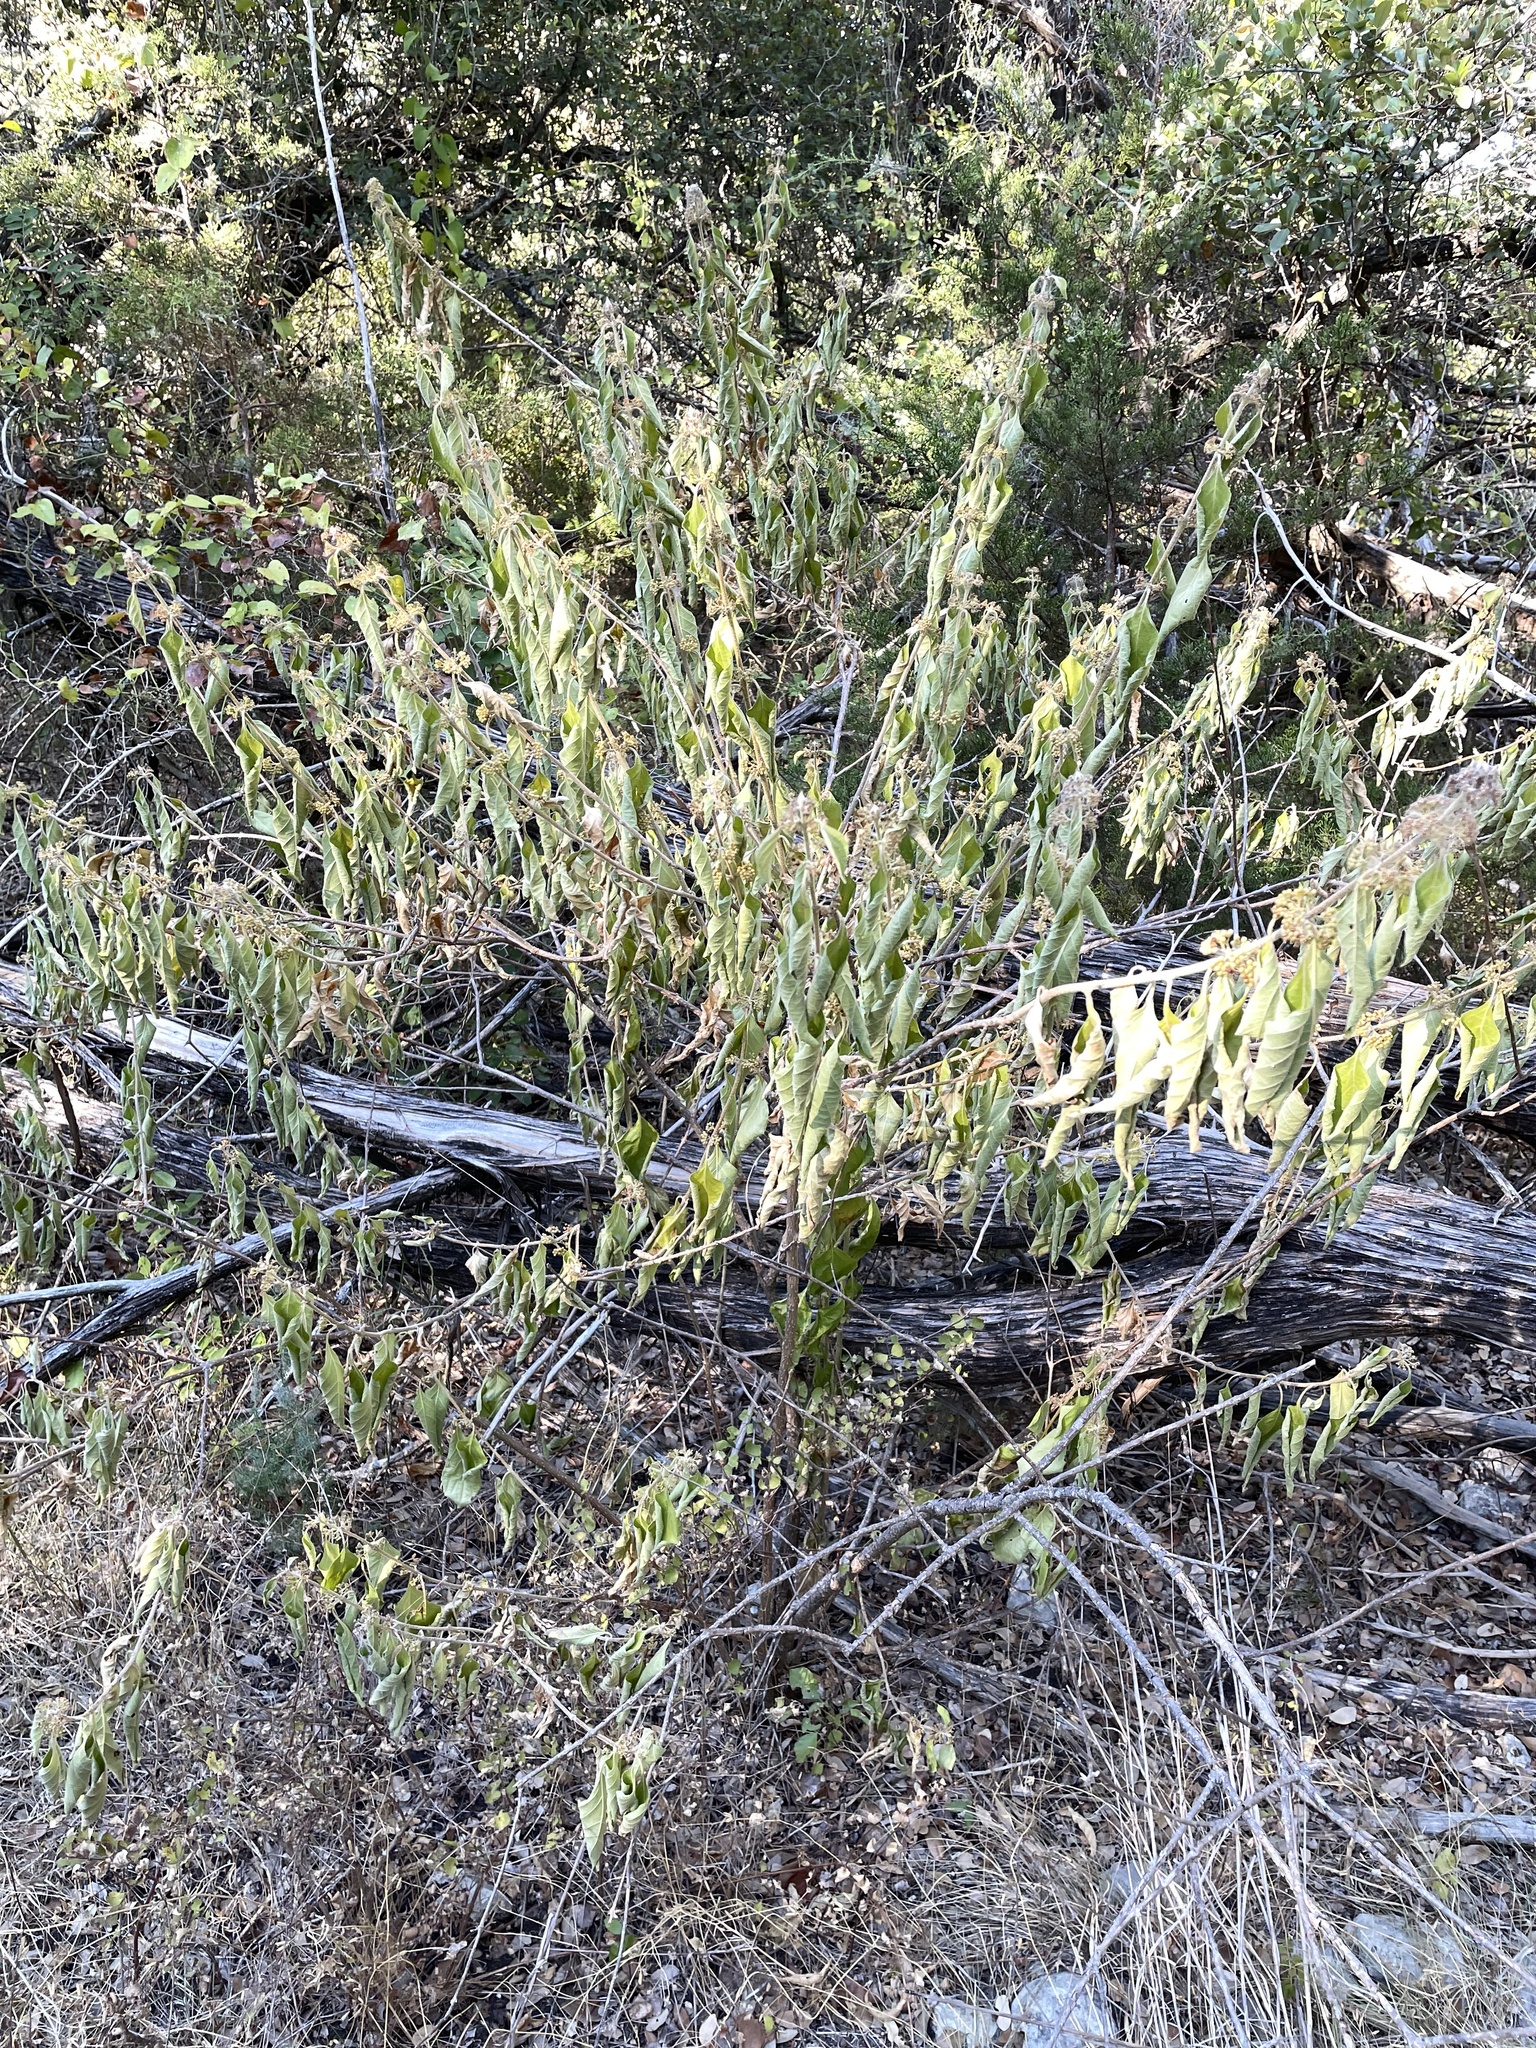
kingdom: Plantae
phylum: Tracheophyta
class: Magnoliopsida
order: Lamiales
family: Lamiaceae
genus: Callicarpa
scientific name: Callicarpa americana
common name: American beautyberry
